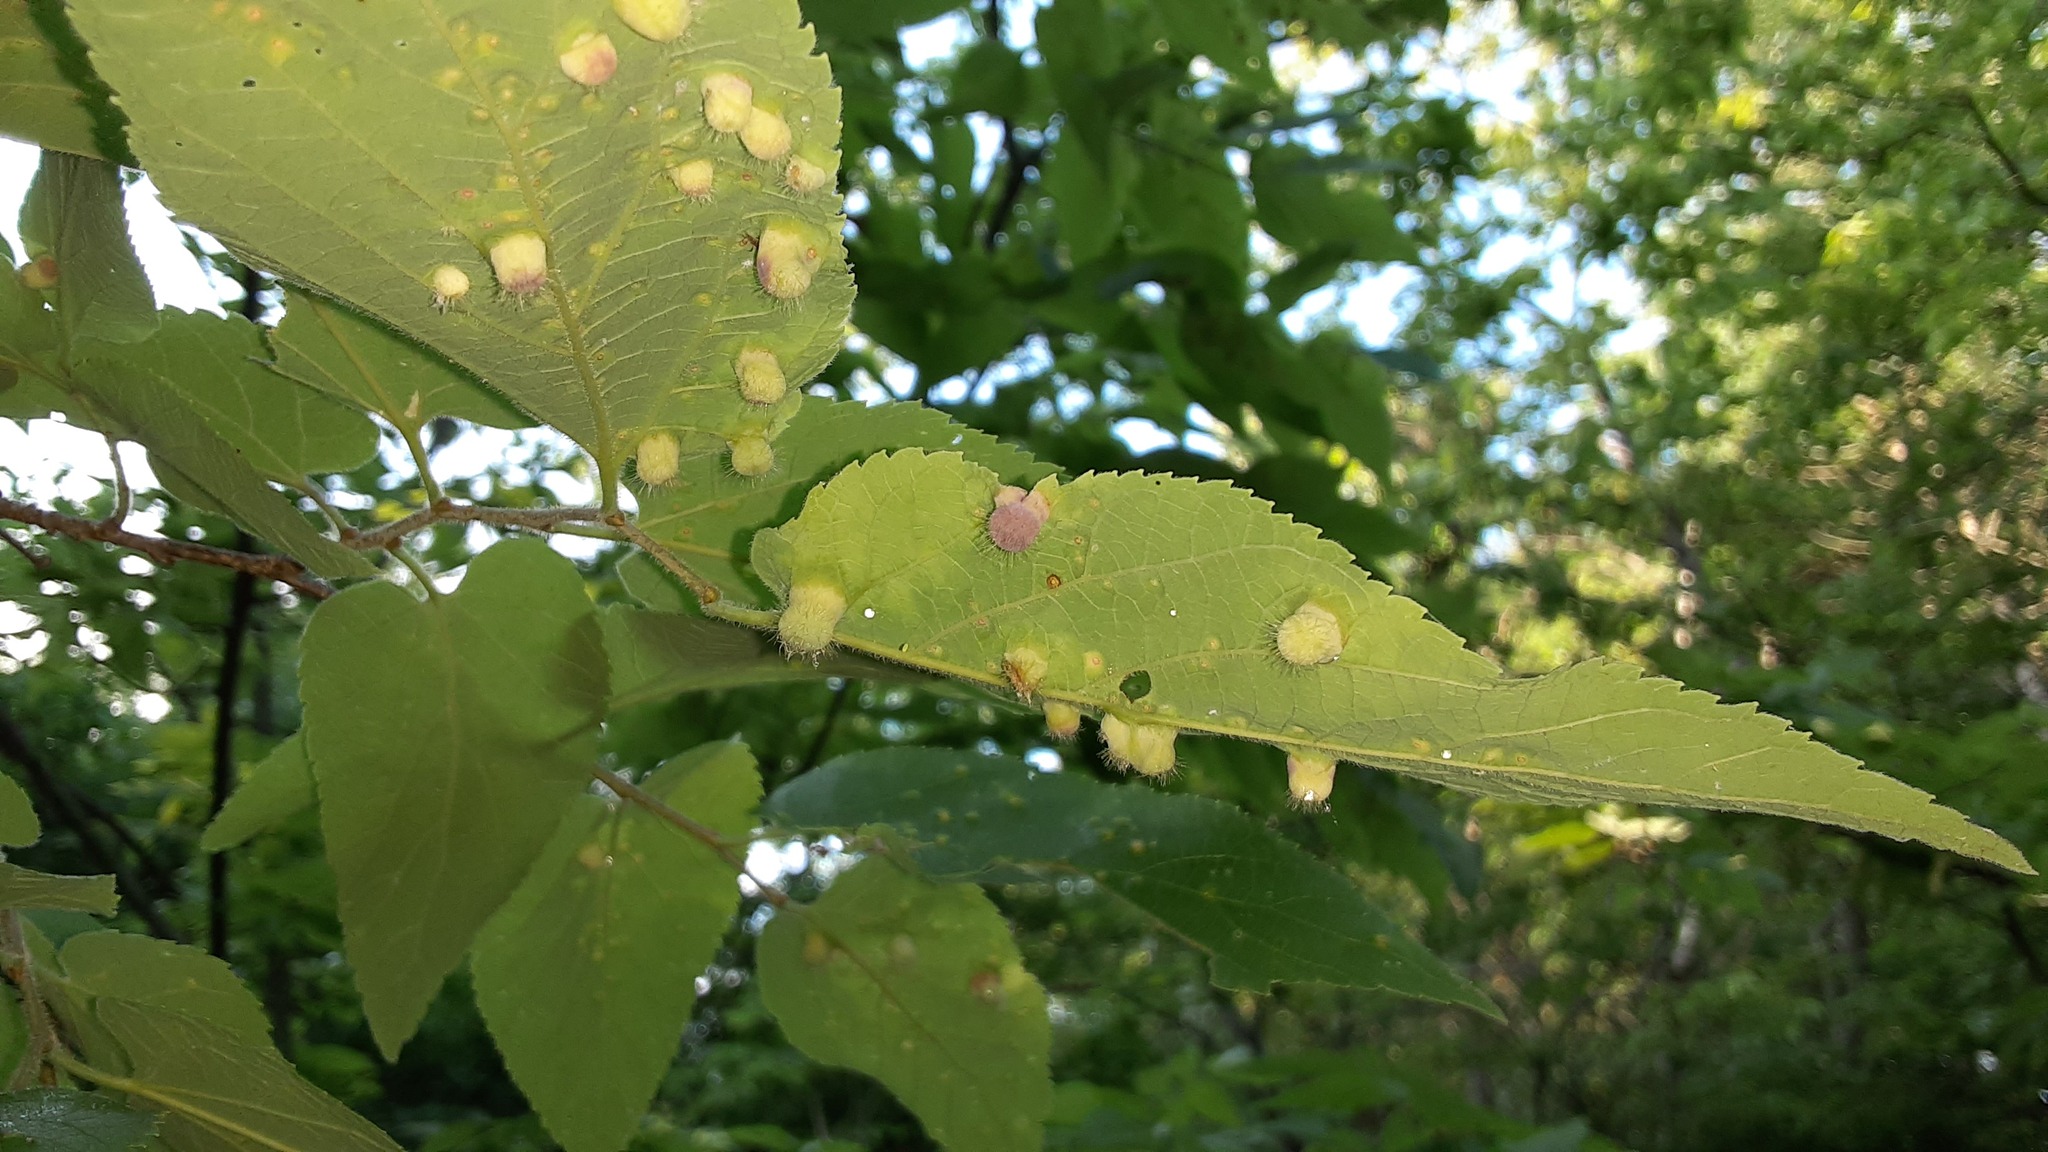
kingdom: Animalia
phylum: Arthropoda
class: Insecta
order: Hemiptera
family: Aphalaridae
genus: Pachypsylla
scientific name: Pachypsylla celtidismamma
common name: Hackberry nipplegall psyllid
